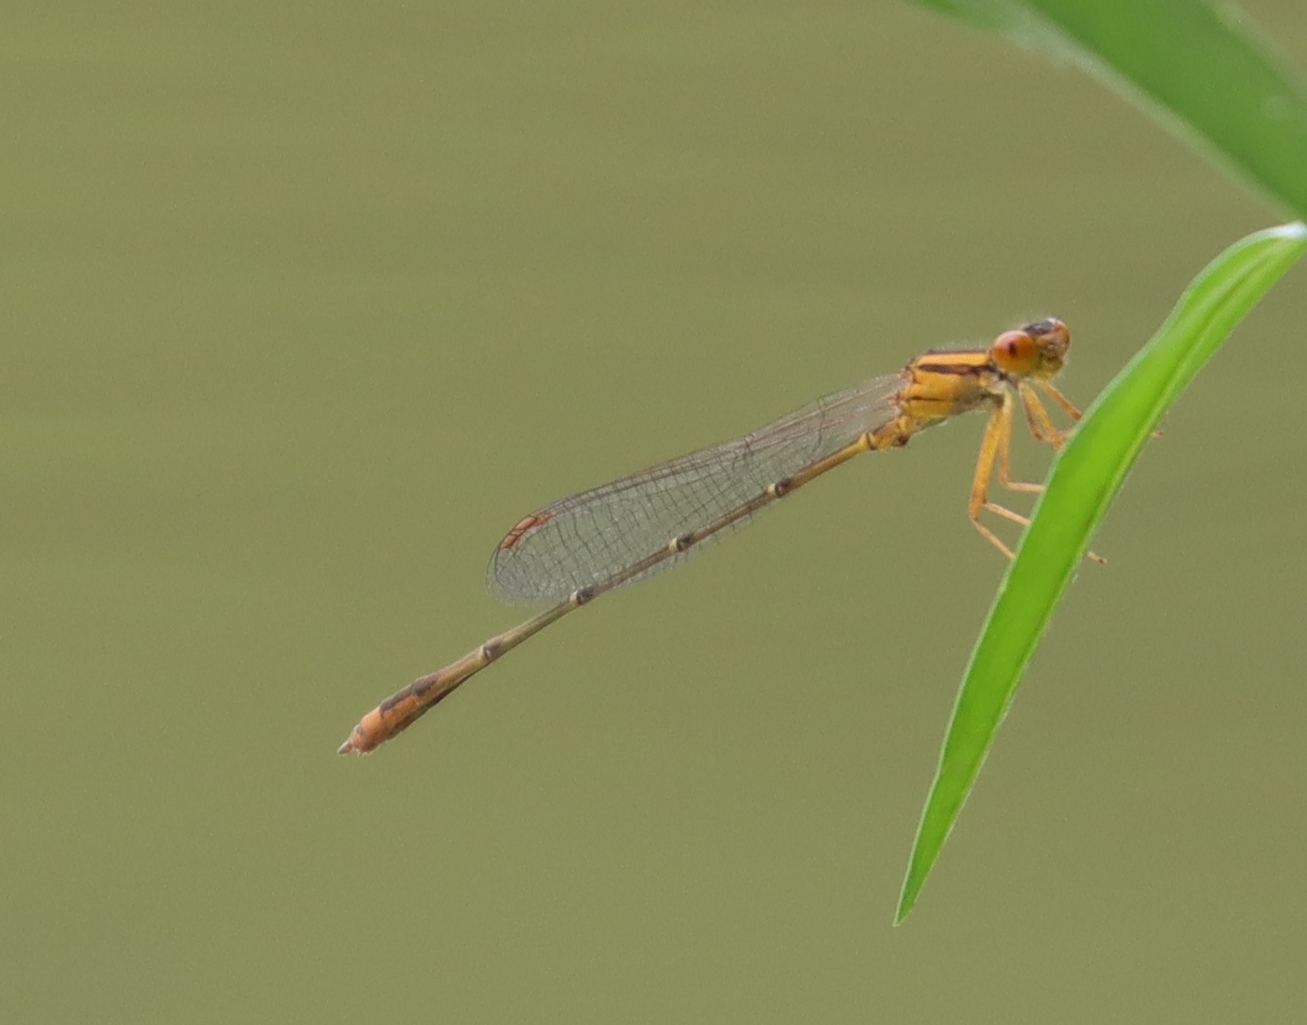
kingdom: Animalia
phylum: Arthropoda
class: Insecta
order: Odonata
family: Coenagrionidae
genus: Enallagma
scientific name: Enallagma signatum
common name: Orange bluet
